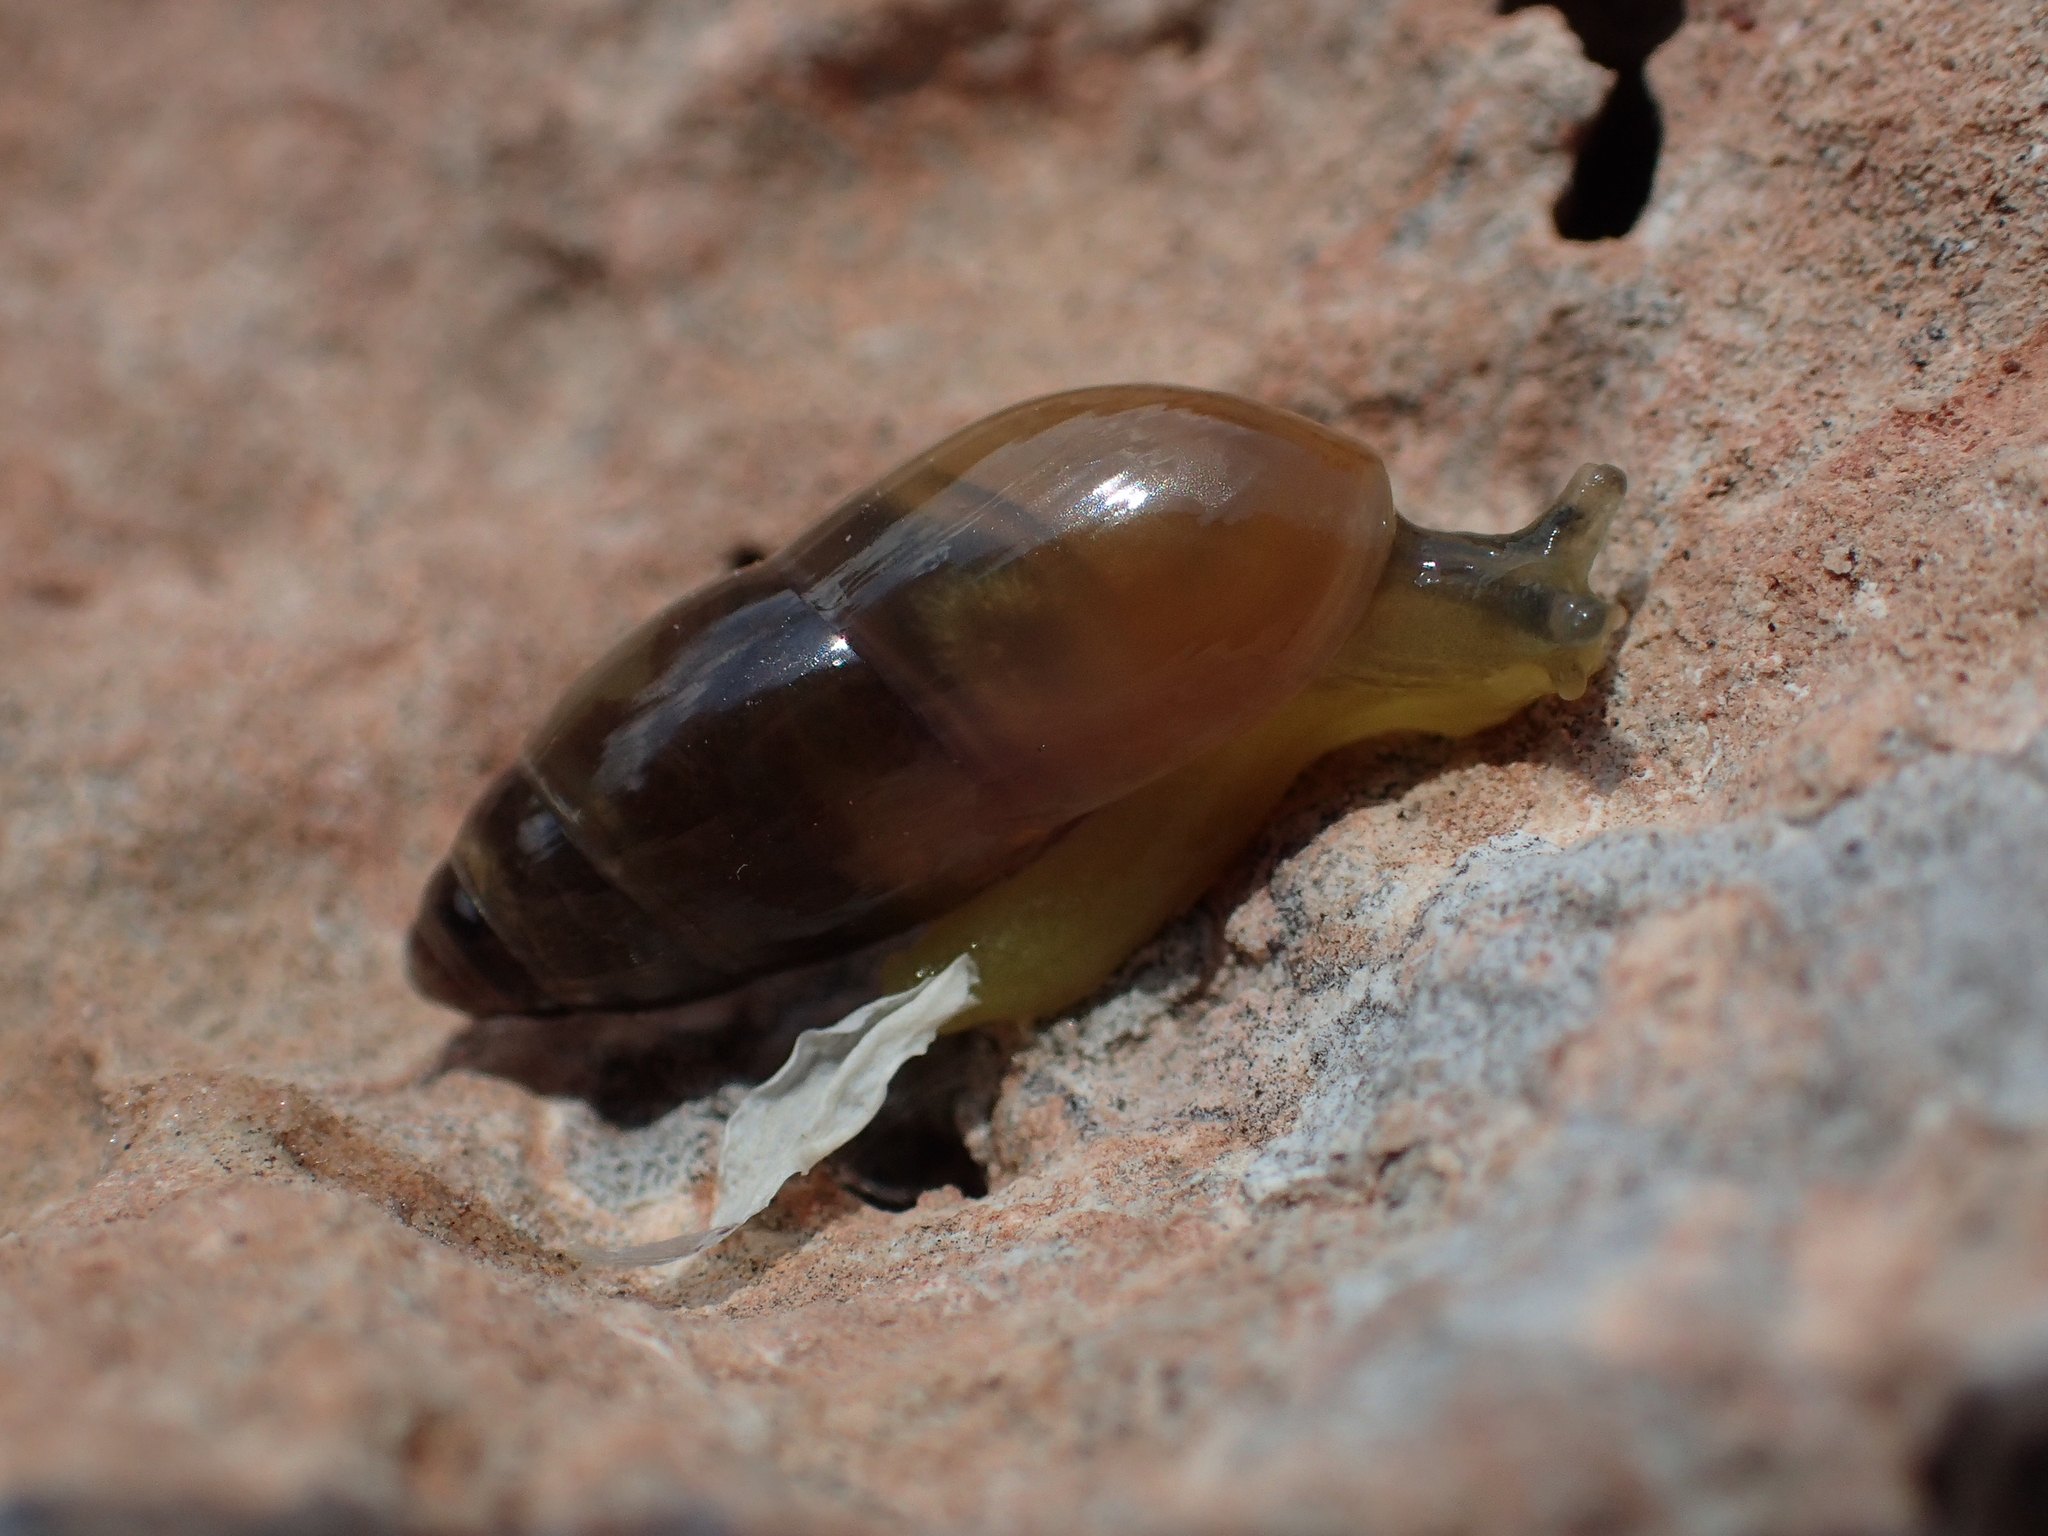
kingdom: Animalia
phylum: Mollusca
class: Gastropoda
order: Stylommatophora
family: Ferussaciidae
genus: Ferussacia
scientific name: Ferussacia folliculum
